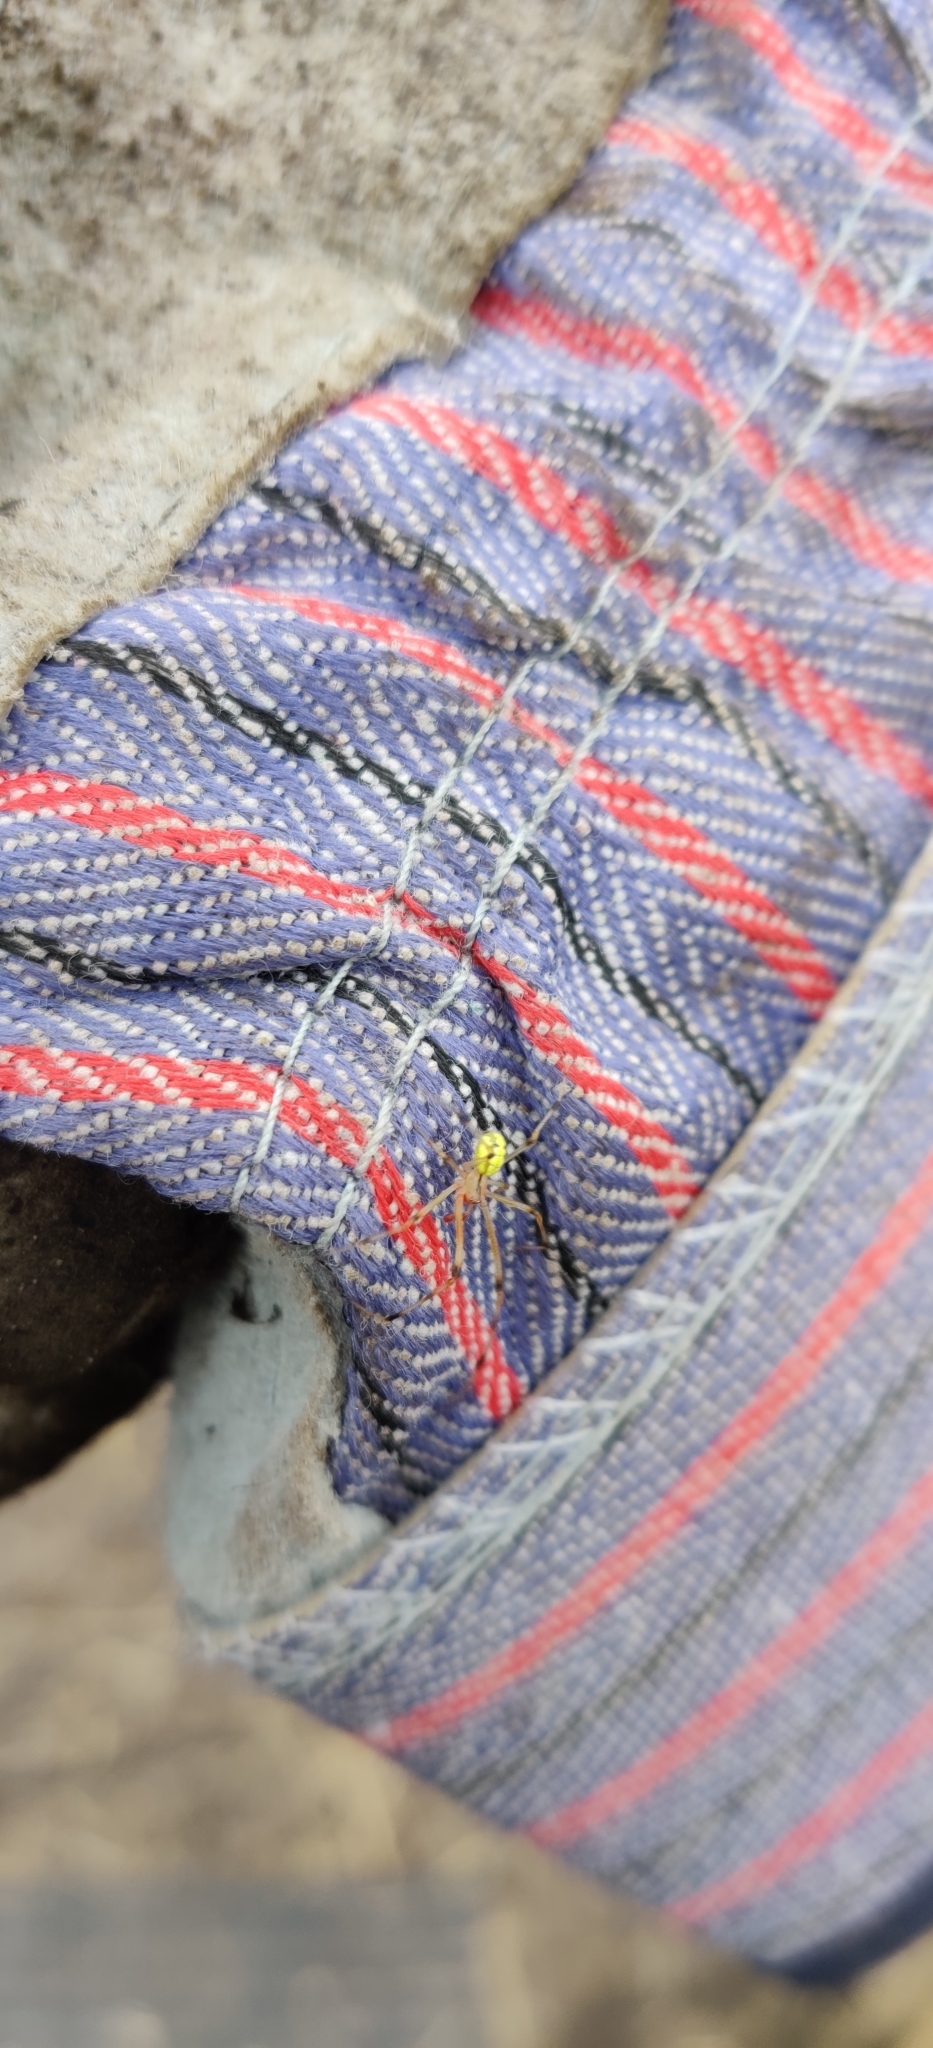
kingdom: Animalia
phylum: Arthropoda
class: Arachnida
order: Araneae
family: Theridiidae
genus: Enoplognatha
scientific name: Enoplognatha ovata
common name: Common candy-striped spider
